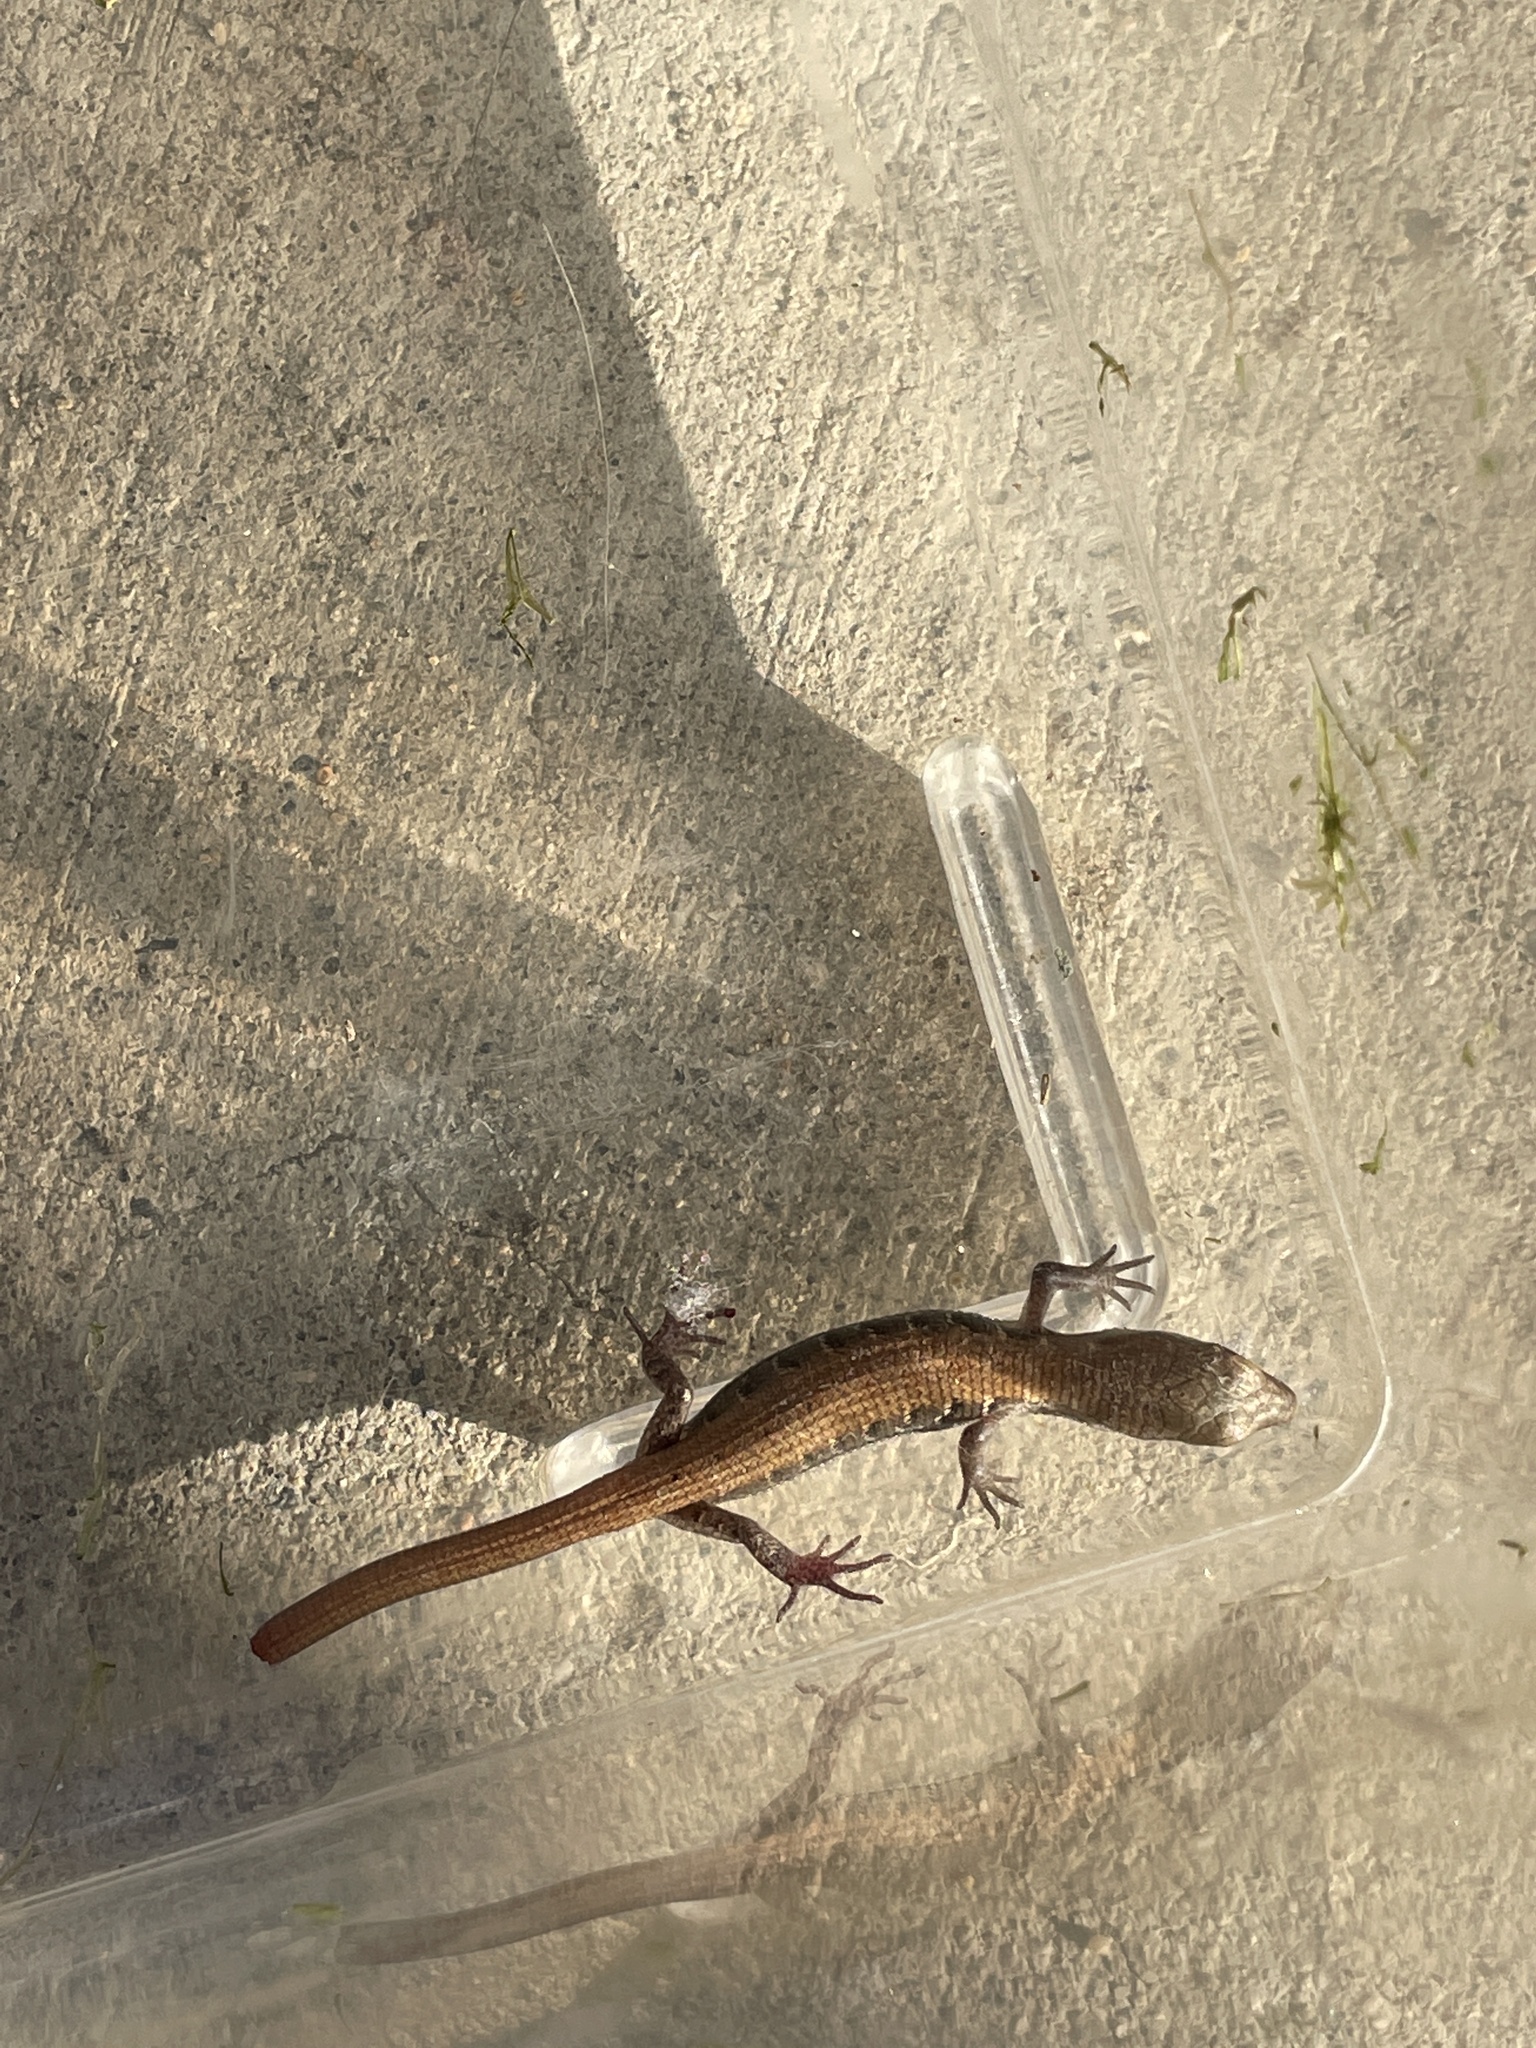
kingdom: Animalia
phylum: Chordata
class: Squamata
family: Anguidae
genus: Elgaria
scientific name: Elgaria multicarinata
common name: Southern alligator lizard
